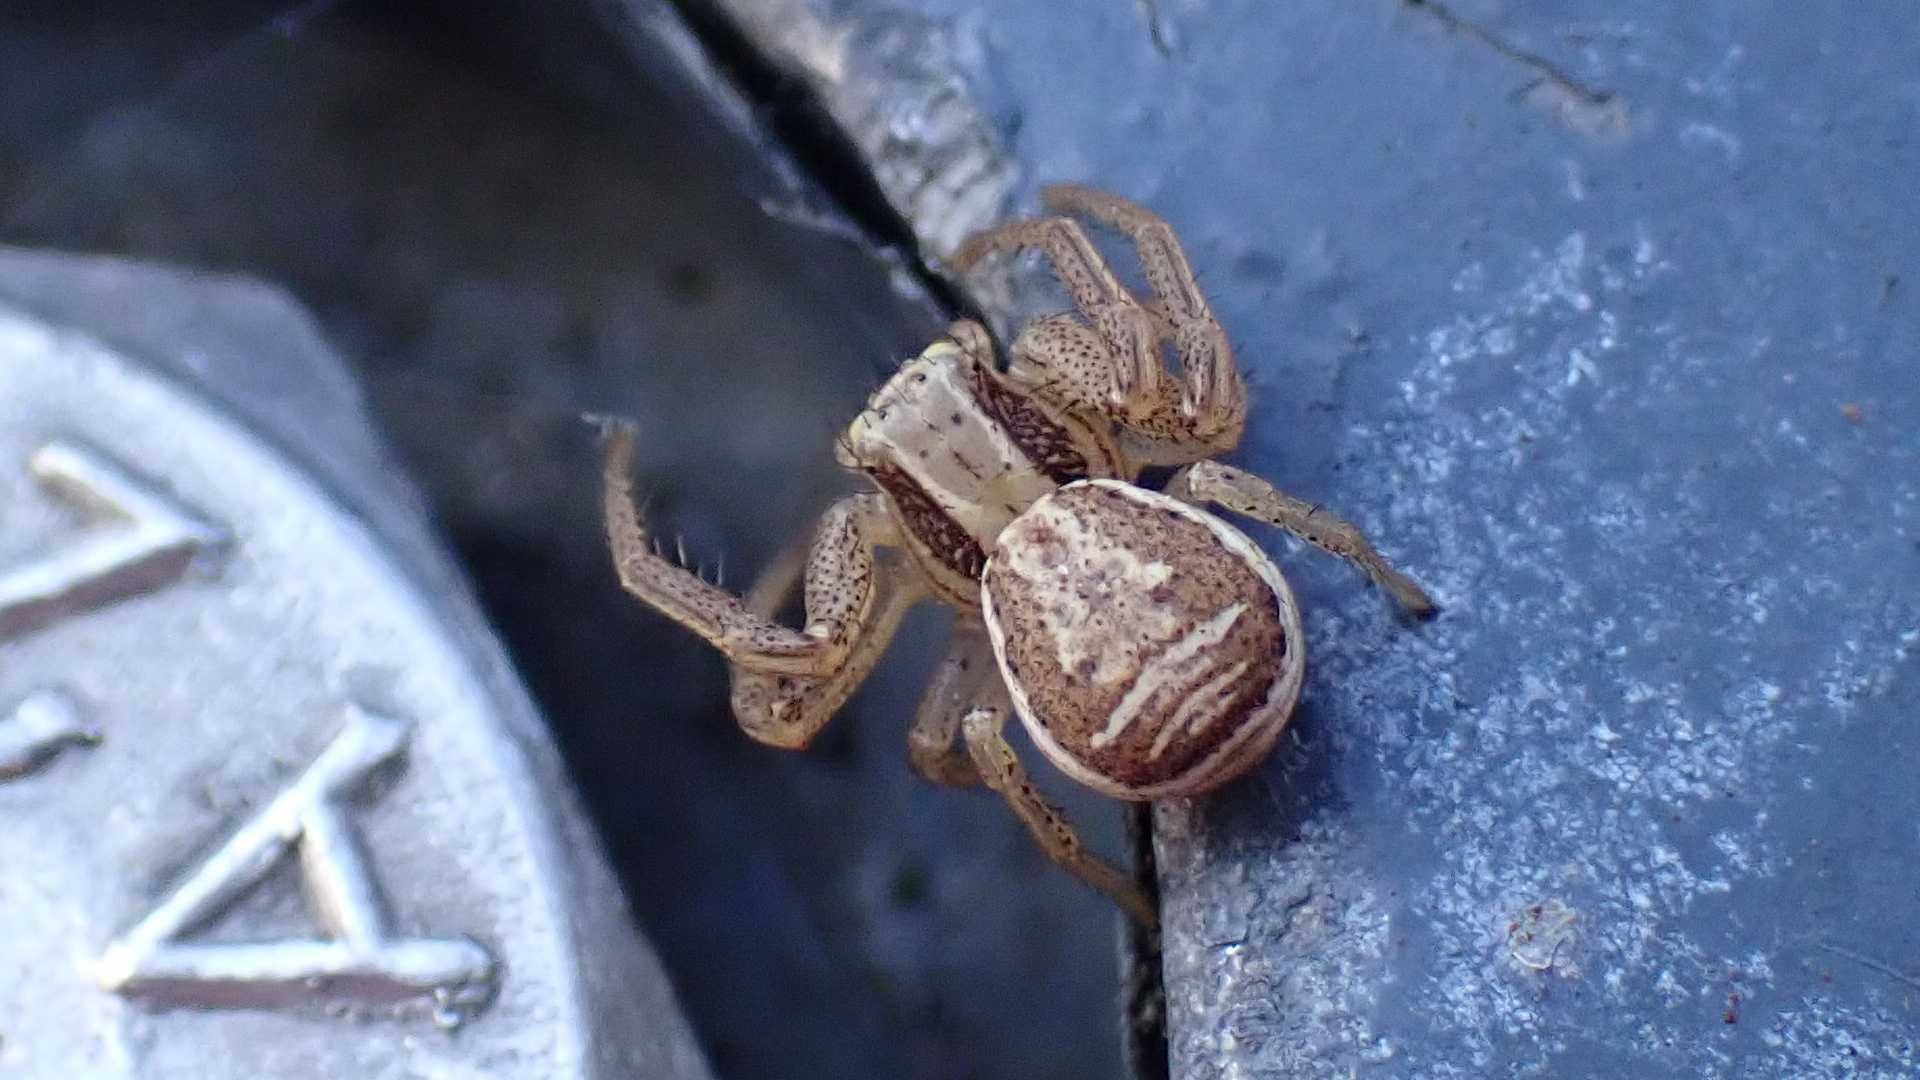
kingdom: Animalia
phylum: Arthropoda
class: Arachnida
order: Araneae
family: Thomisidae
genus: Xysticus
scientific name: Xysticus ulmi
